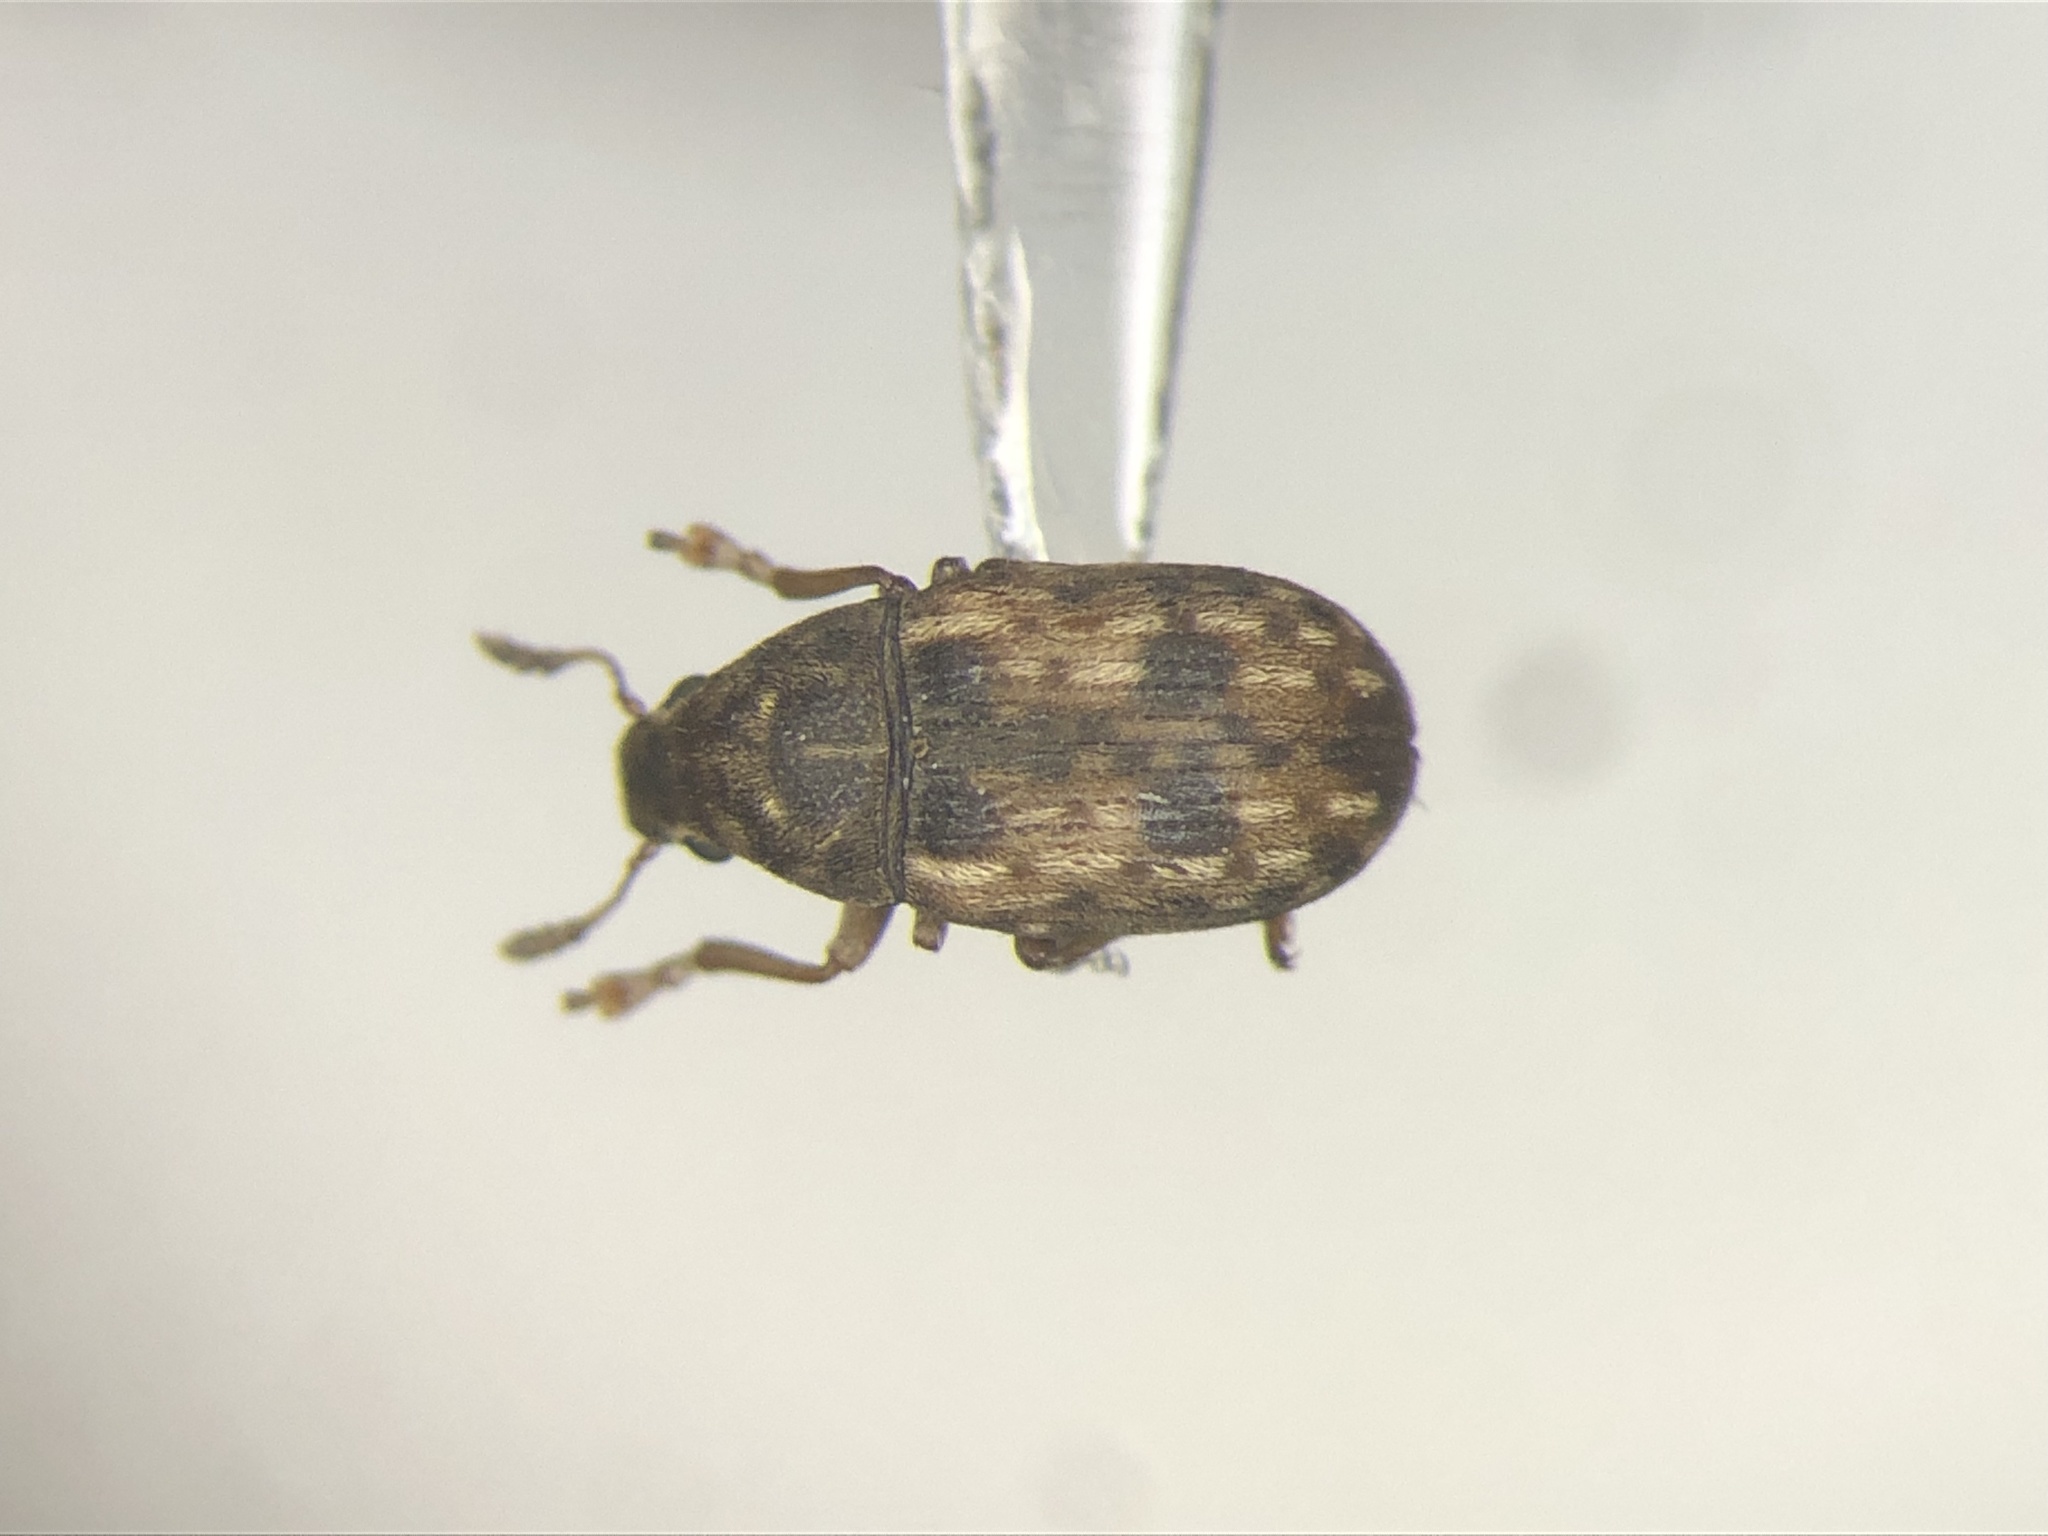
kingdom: Animalia
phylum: Arthropoda
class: Insecta
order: Coleoptera
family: Anthribidae
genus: Trigonorhinus
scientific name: Trigonorhinus sticticus
